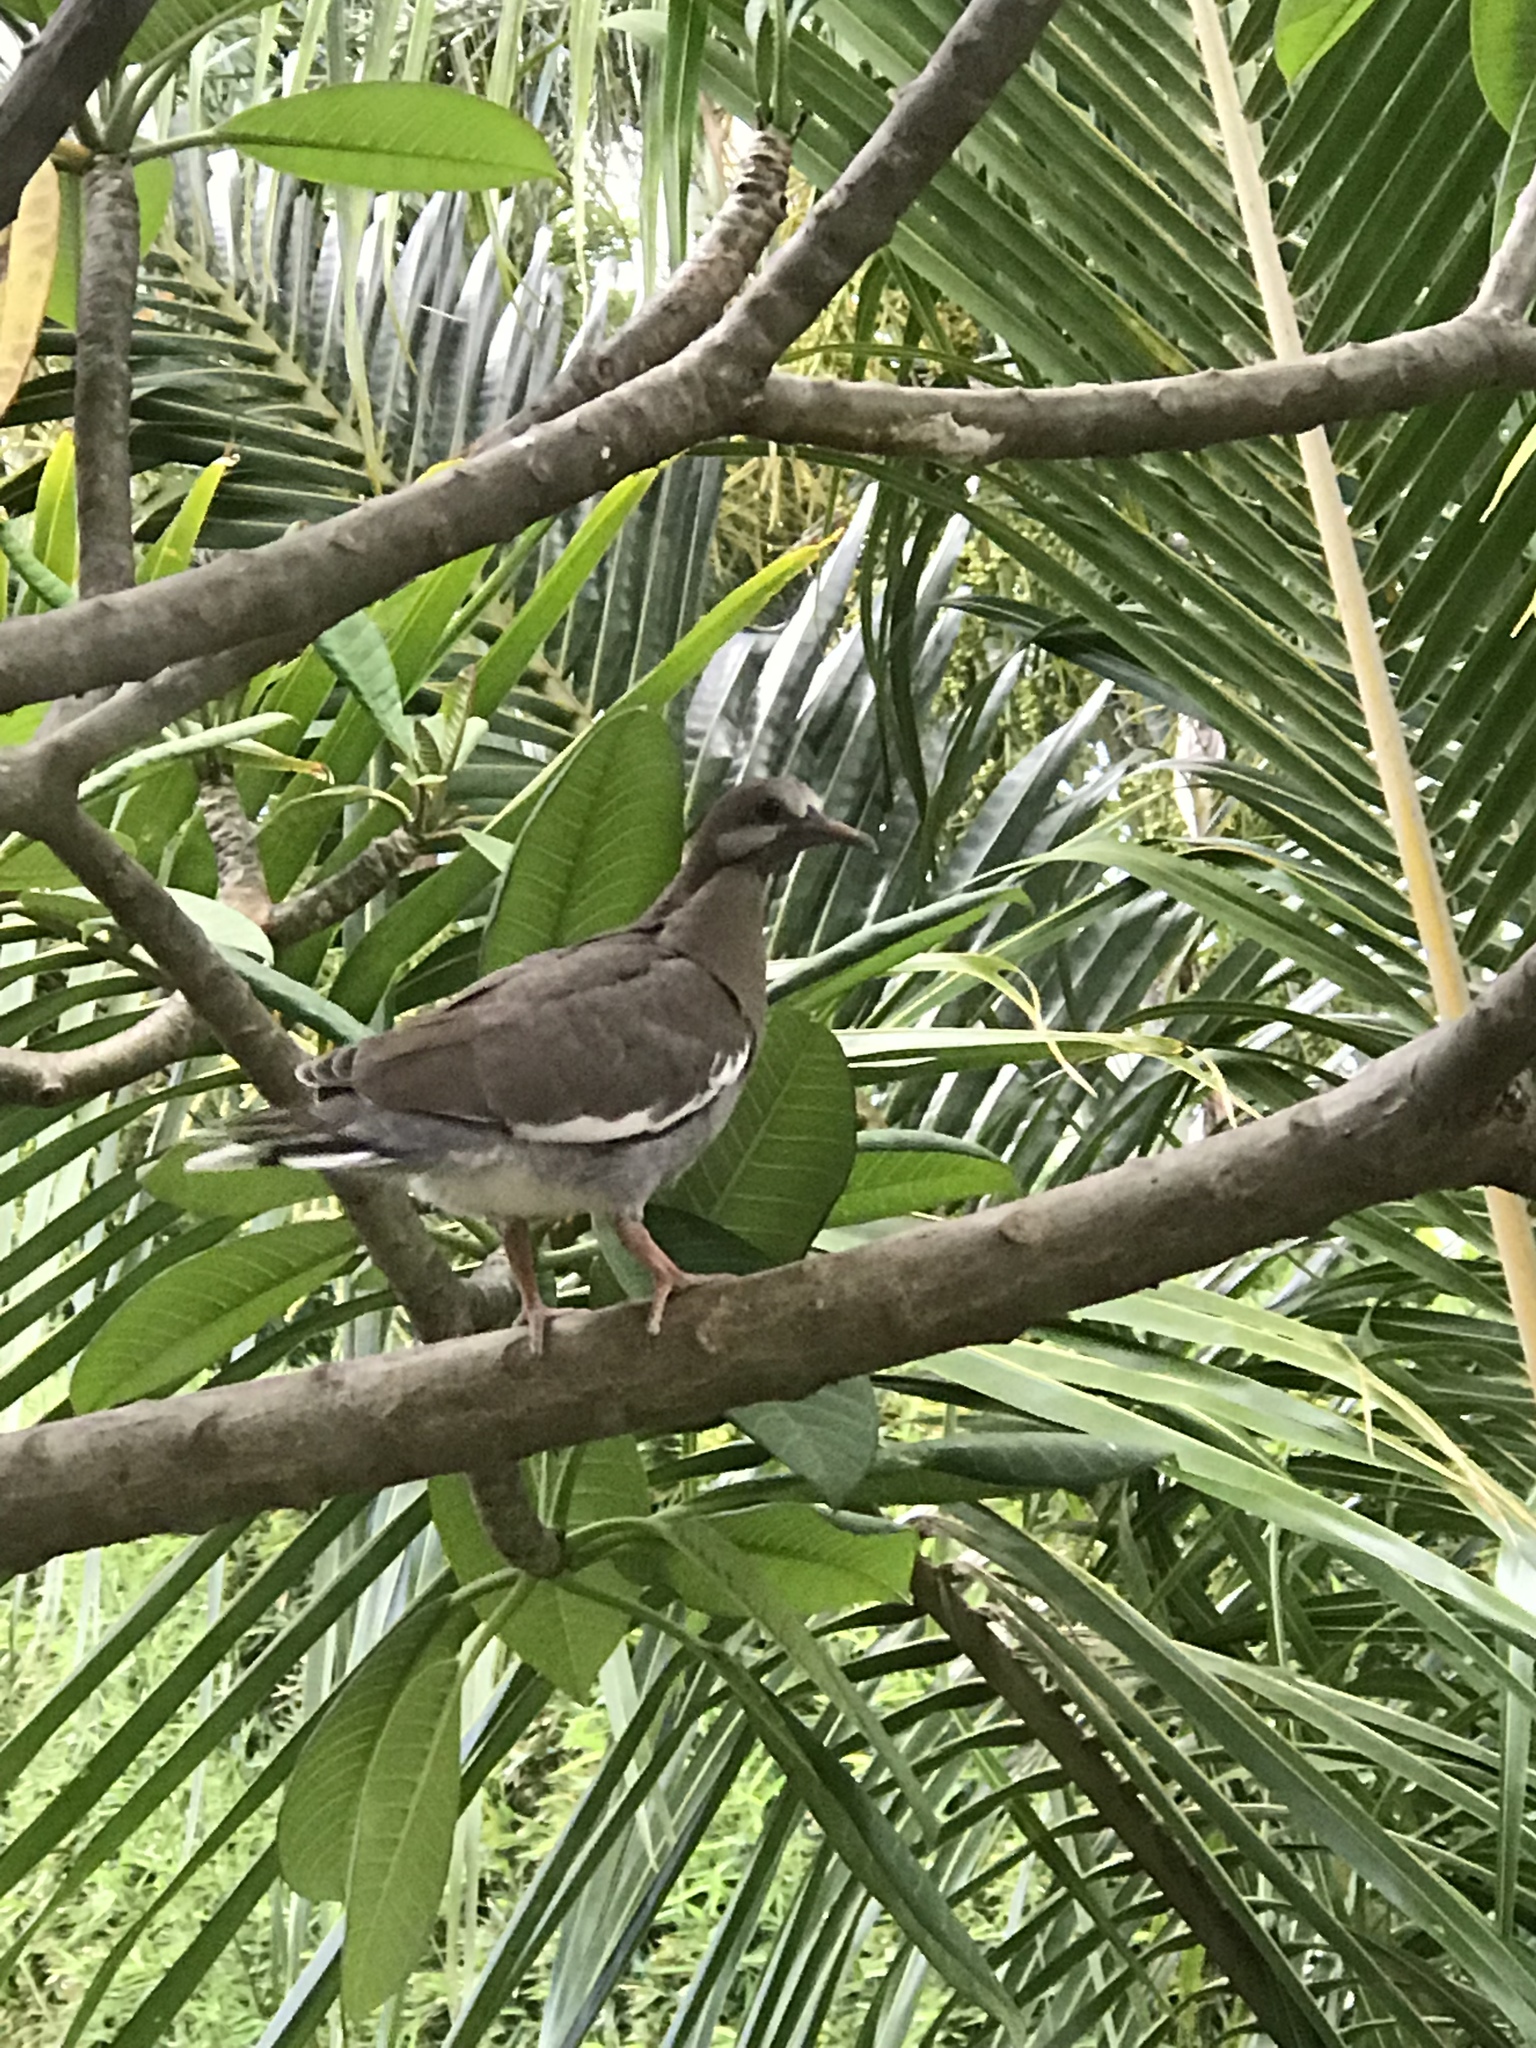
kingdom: Animalia
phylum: Chordata
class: Aves
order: Columbiformes
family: Columbidae
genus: Zenaida
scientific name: Zenaida asiatica
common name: White-winged dove
